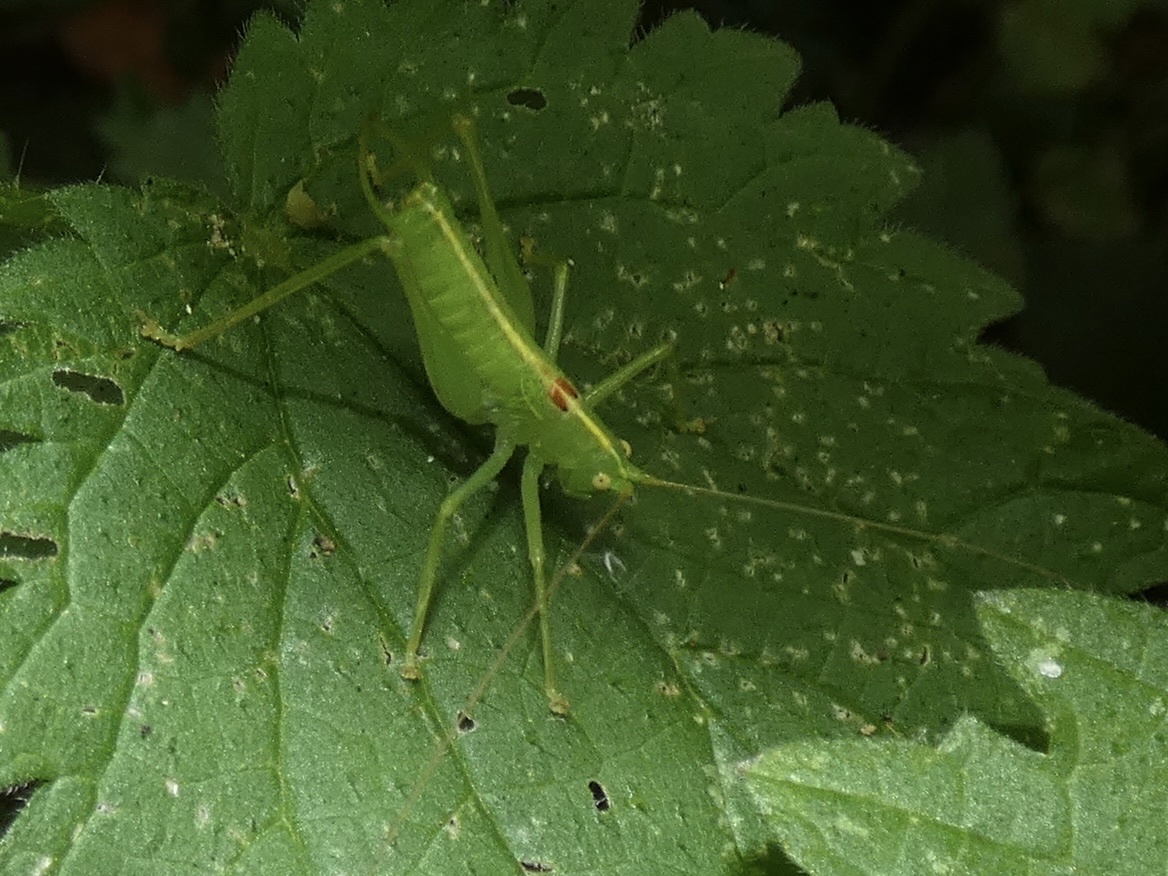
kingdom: Animalia
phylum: Arthropoda
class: Insecta
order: Orthoptera
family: Tettigoniidae
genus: Meconema
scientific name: Meconema meridionale
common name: Southern oak bush-cricket
